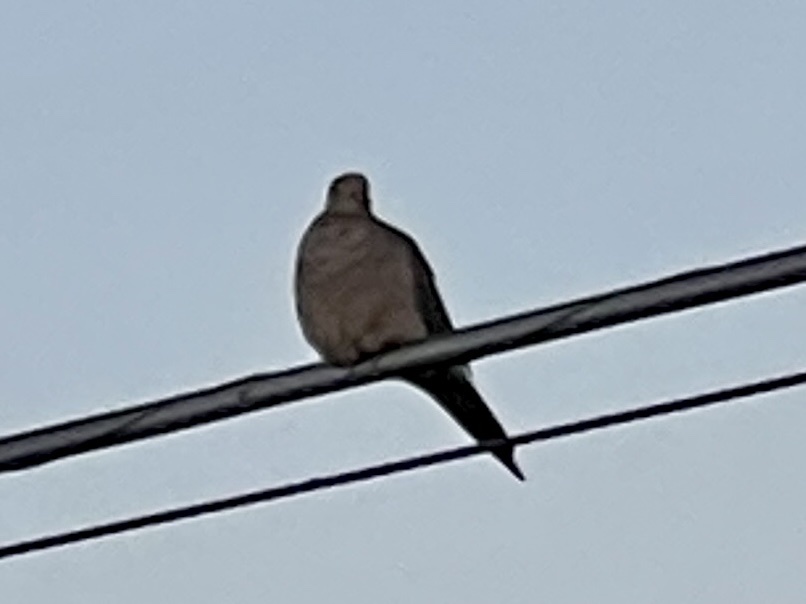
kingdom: Animalia
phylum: Chordata
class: Aves
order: Columbiformes
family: Columbidae
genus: Zenaida
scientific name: Zenaida macroura
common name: Mourning dove
